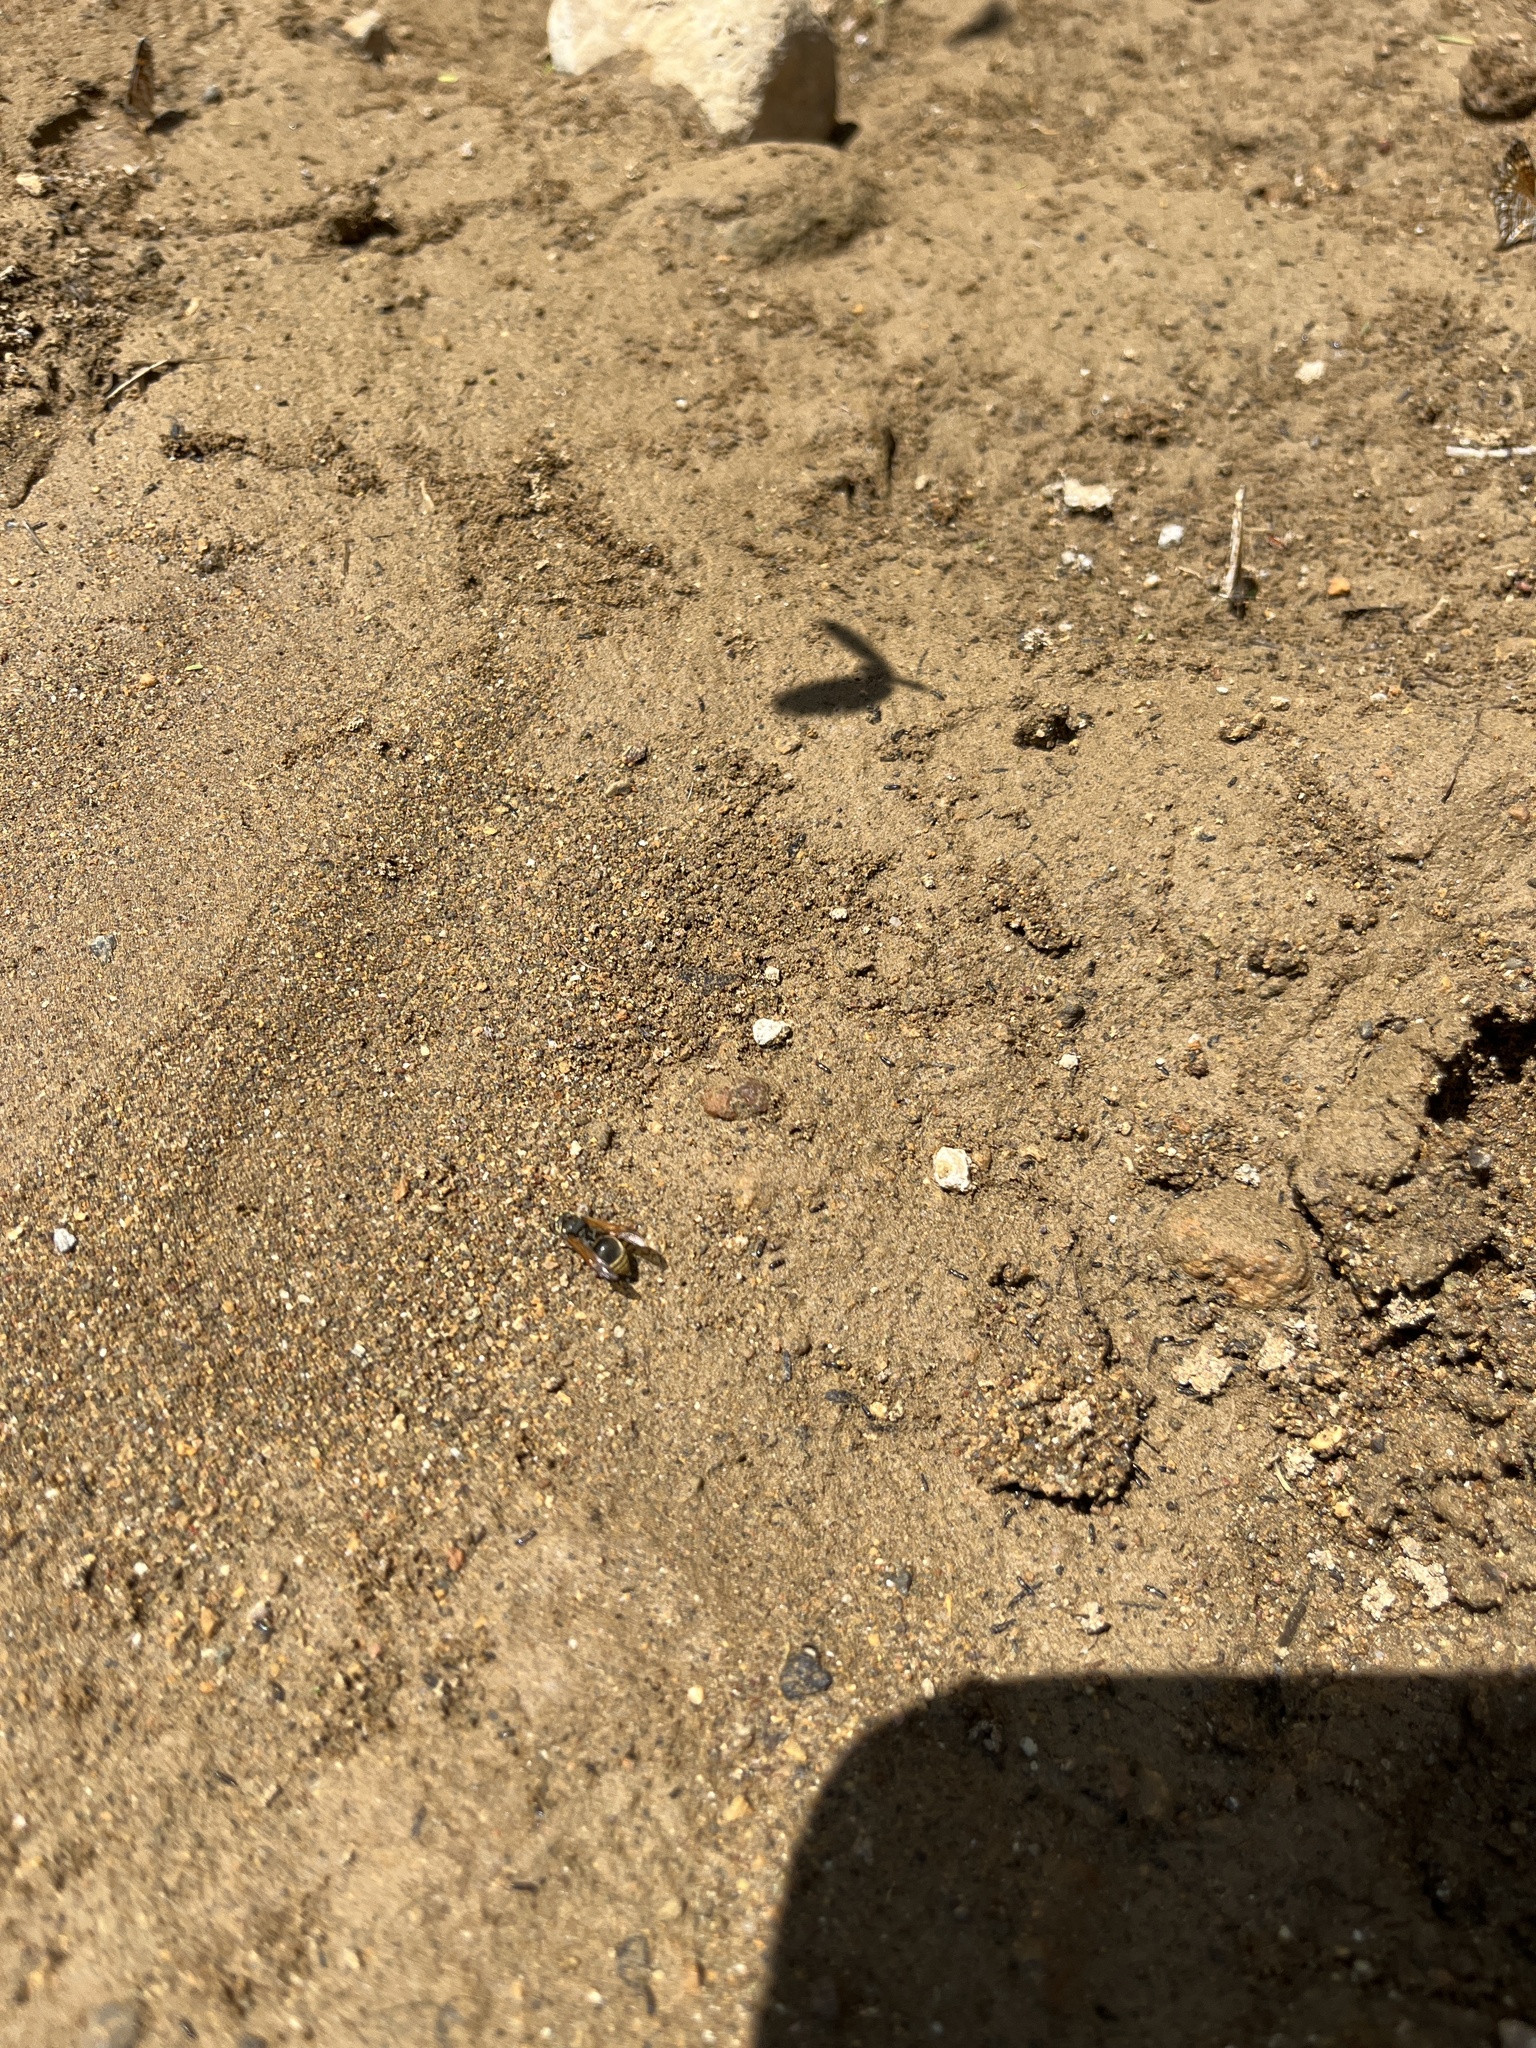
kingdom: Animalia
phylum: Arthropoda
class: Insecta
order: Hymenoptera
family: Vespidae
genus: Brachygastra
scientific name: Brachygastra mellifica
